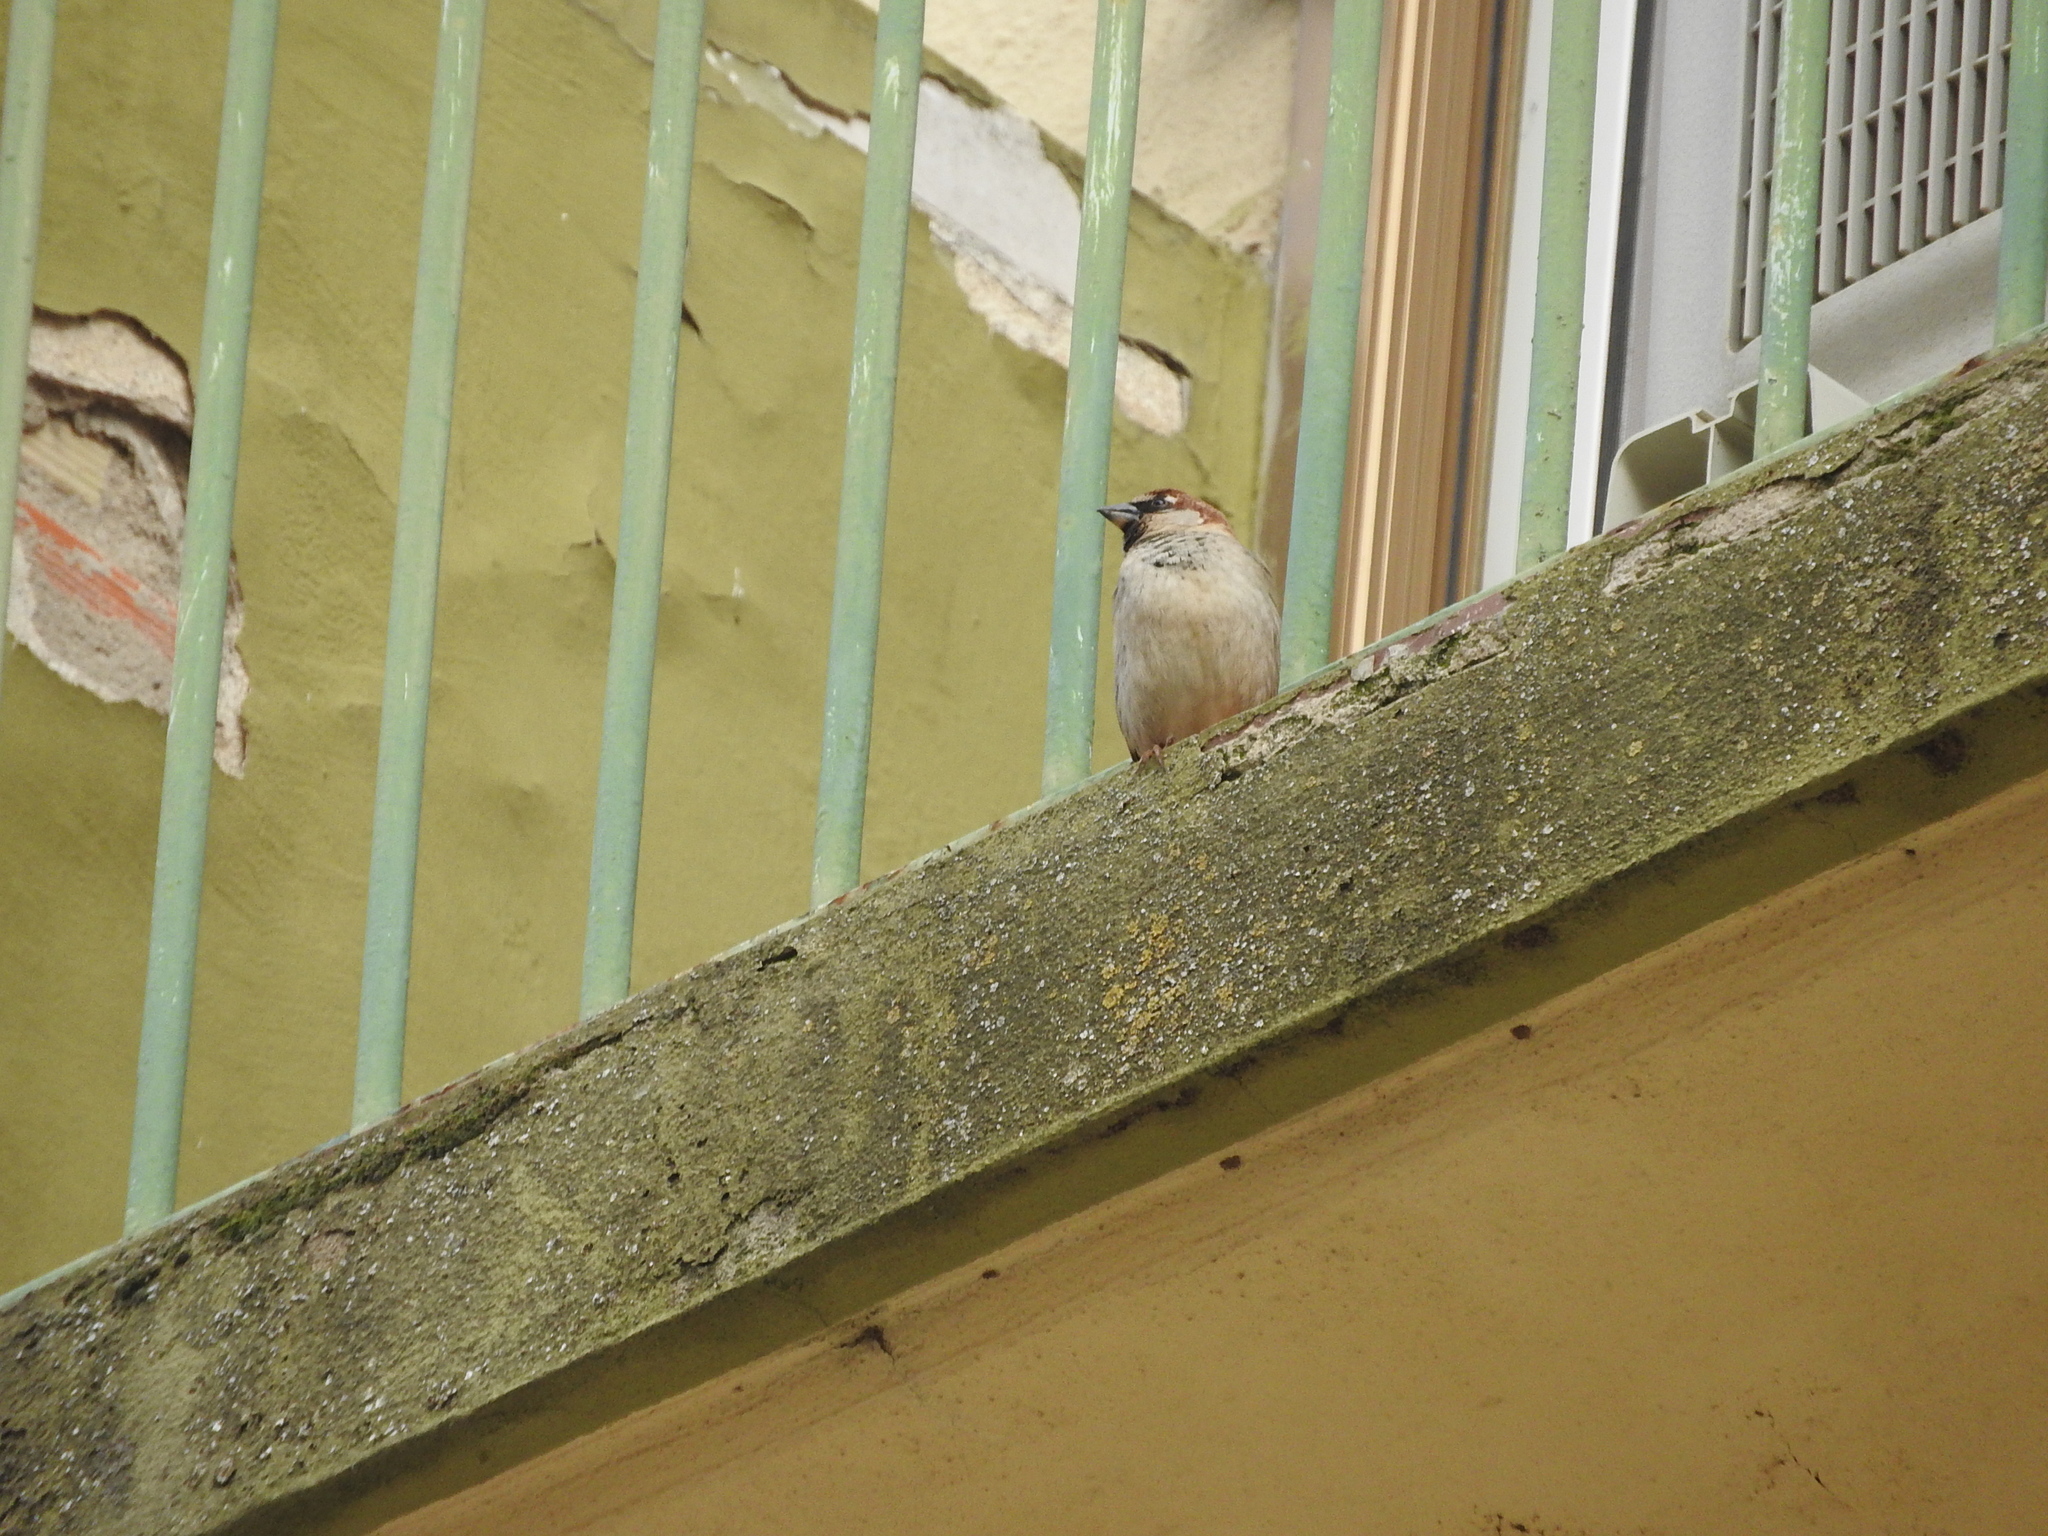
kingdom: Animalia
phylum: Chordata
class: Aves
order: Passeriformes
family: Passeridae
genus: Passer
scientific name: Passer italiae
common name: Italian sparrow
